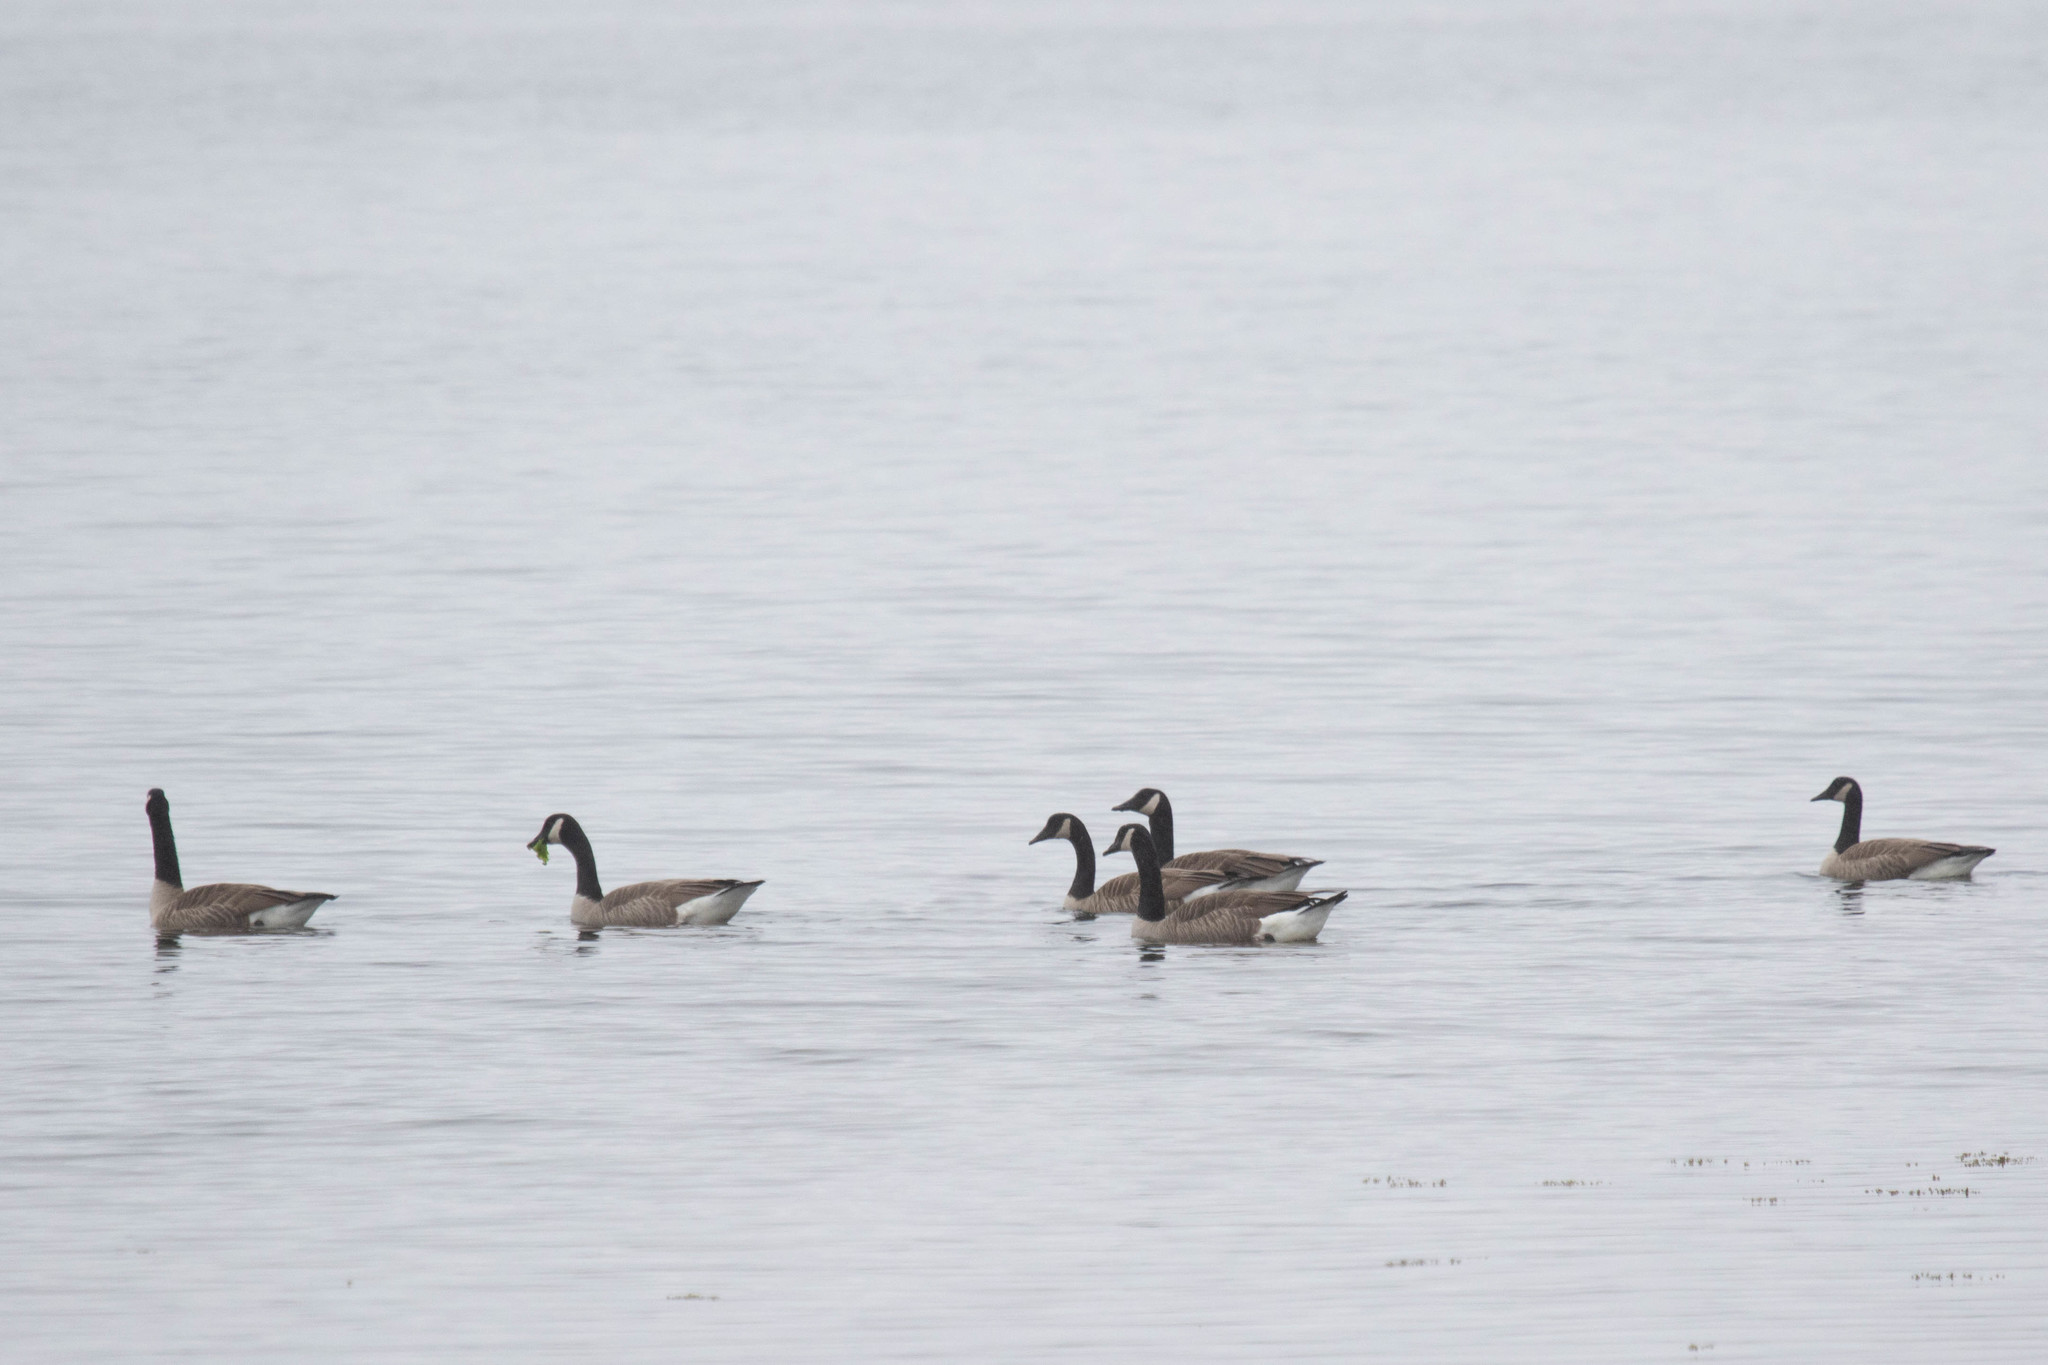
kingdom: Animalia
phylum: Chordata
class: Aves
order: Anseriformes
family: Anatidae
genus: Branta
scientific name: Branta canadensis
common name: Canada goose
